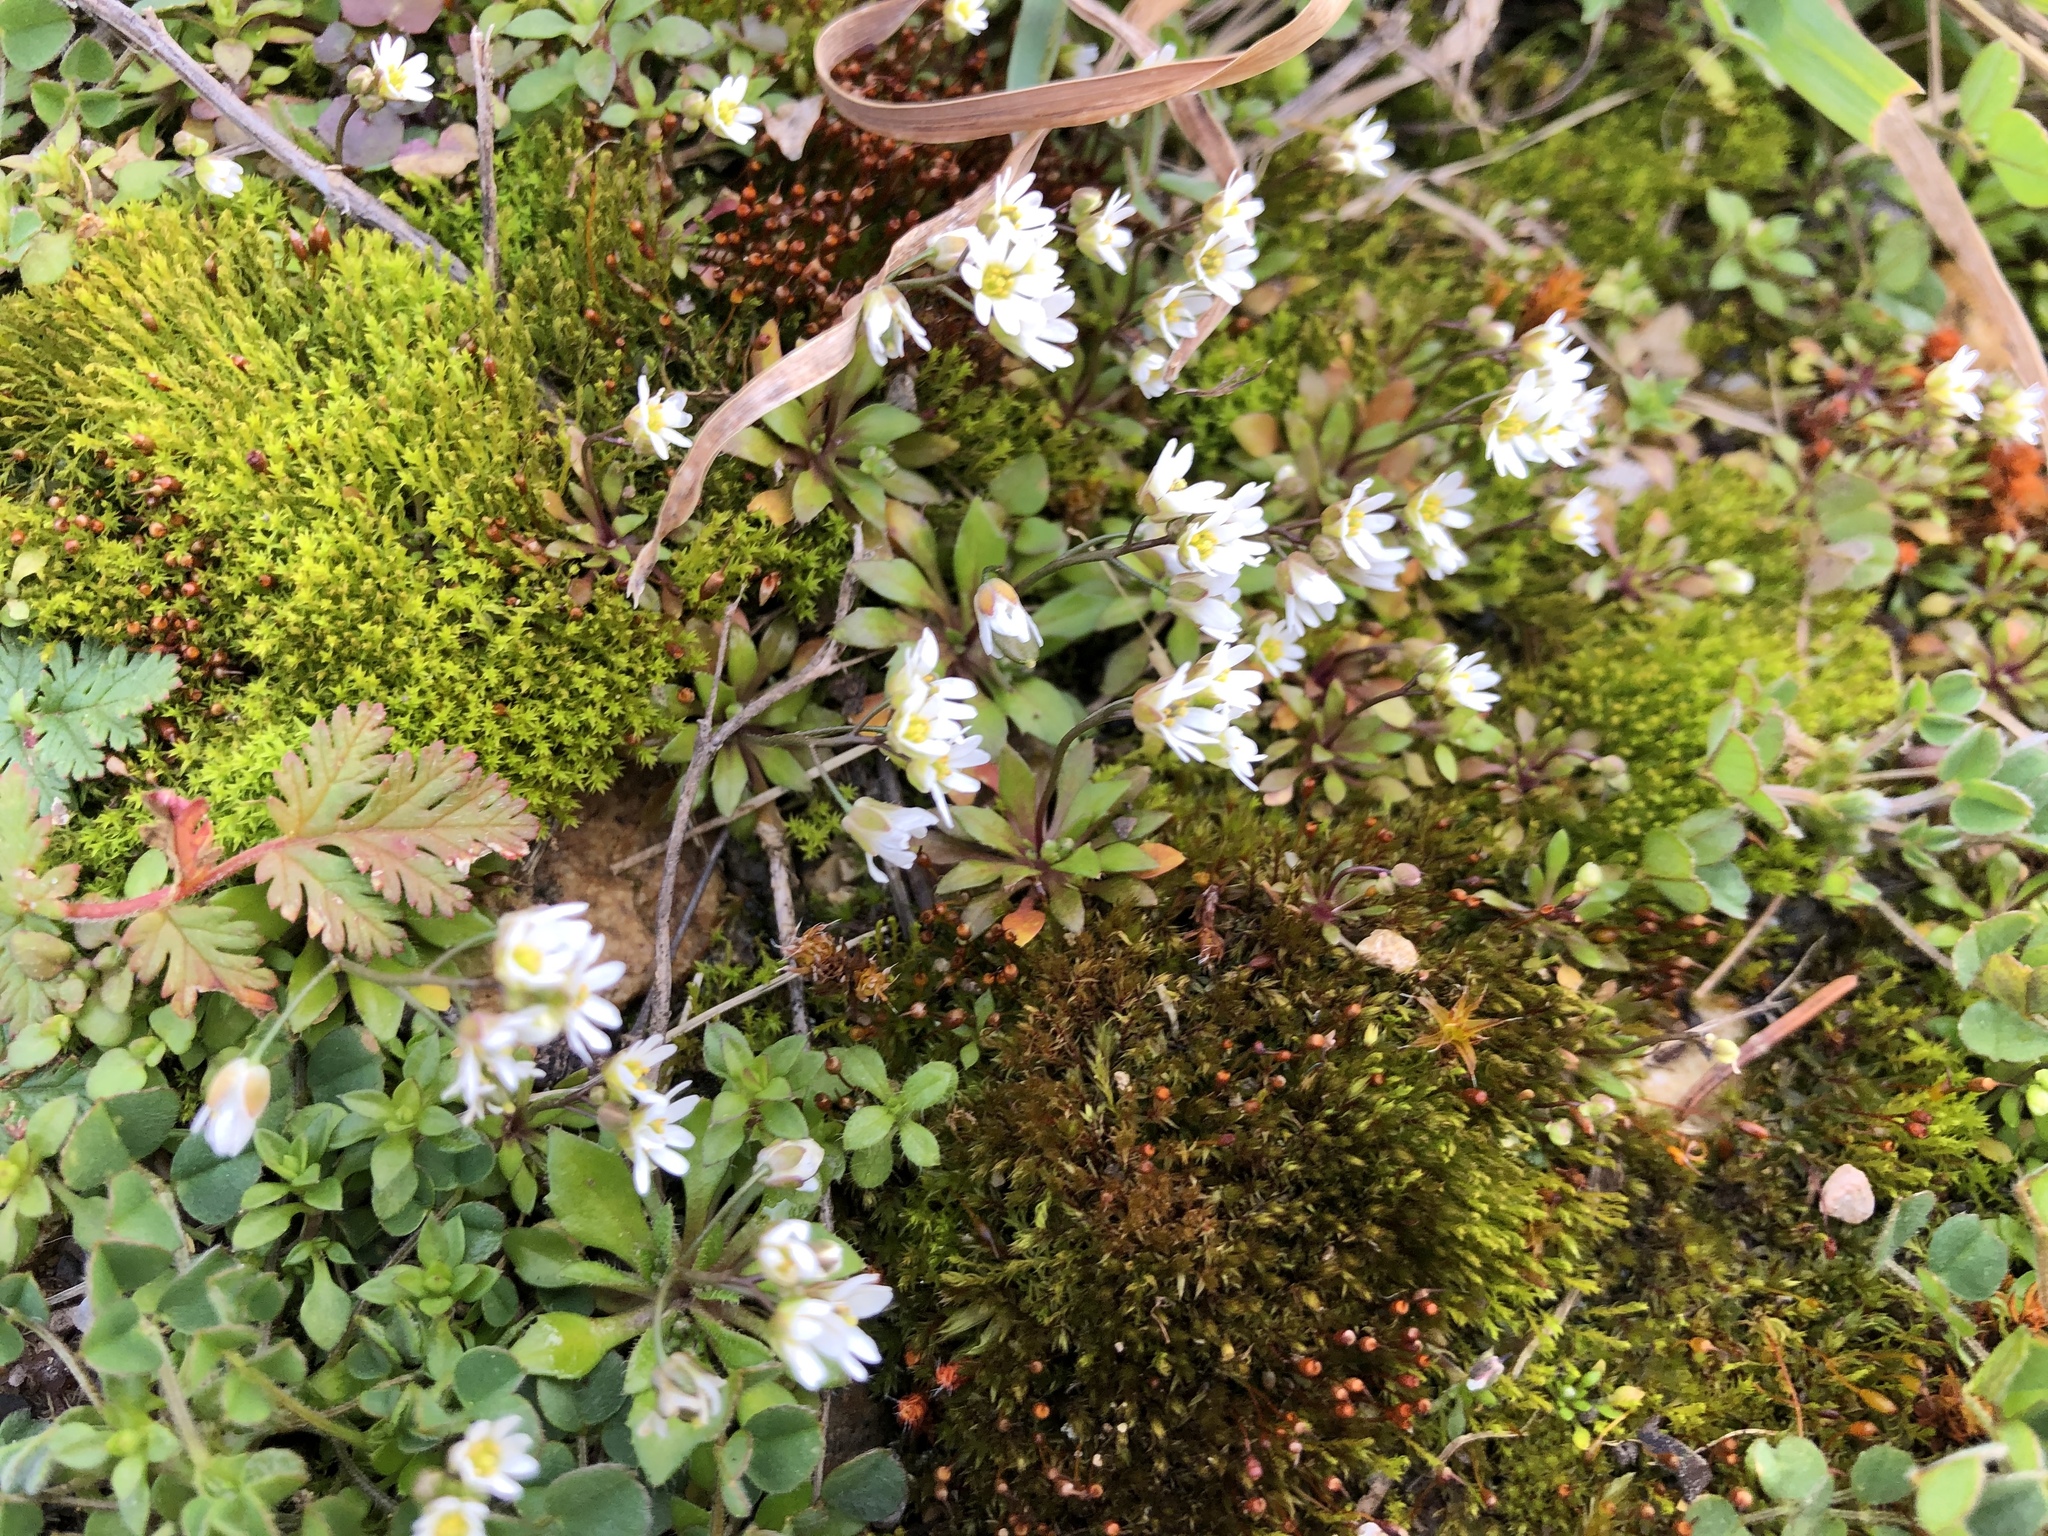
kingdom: Plantae
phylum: Tracheophyta
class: Magnoliopsida
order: Brassicales
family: Brassicaceae
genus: Draba
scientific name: Draba verna
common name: Spring draba
